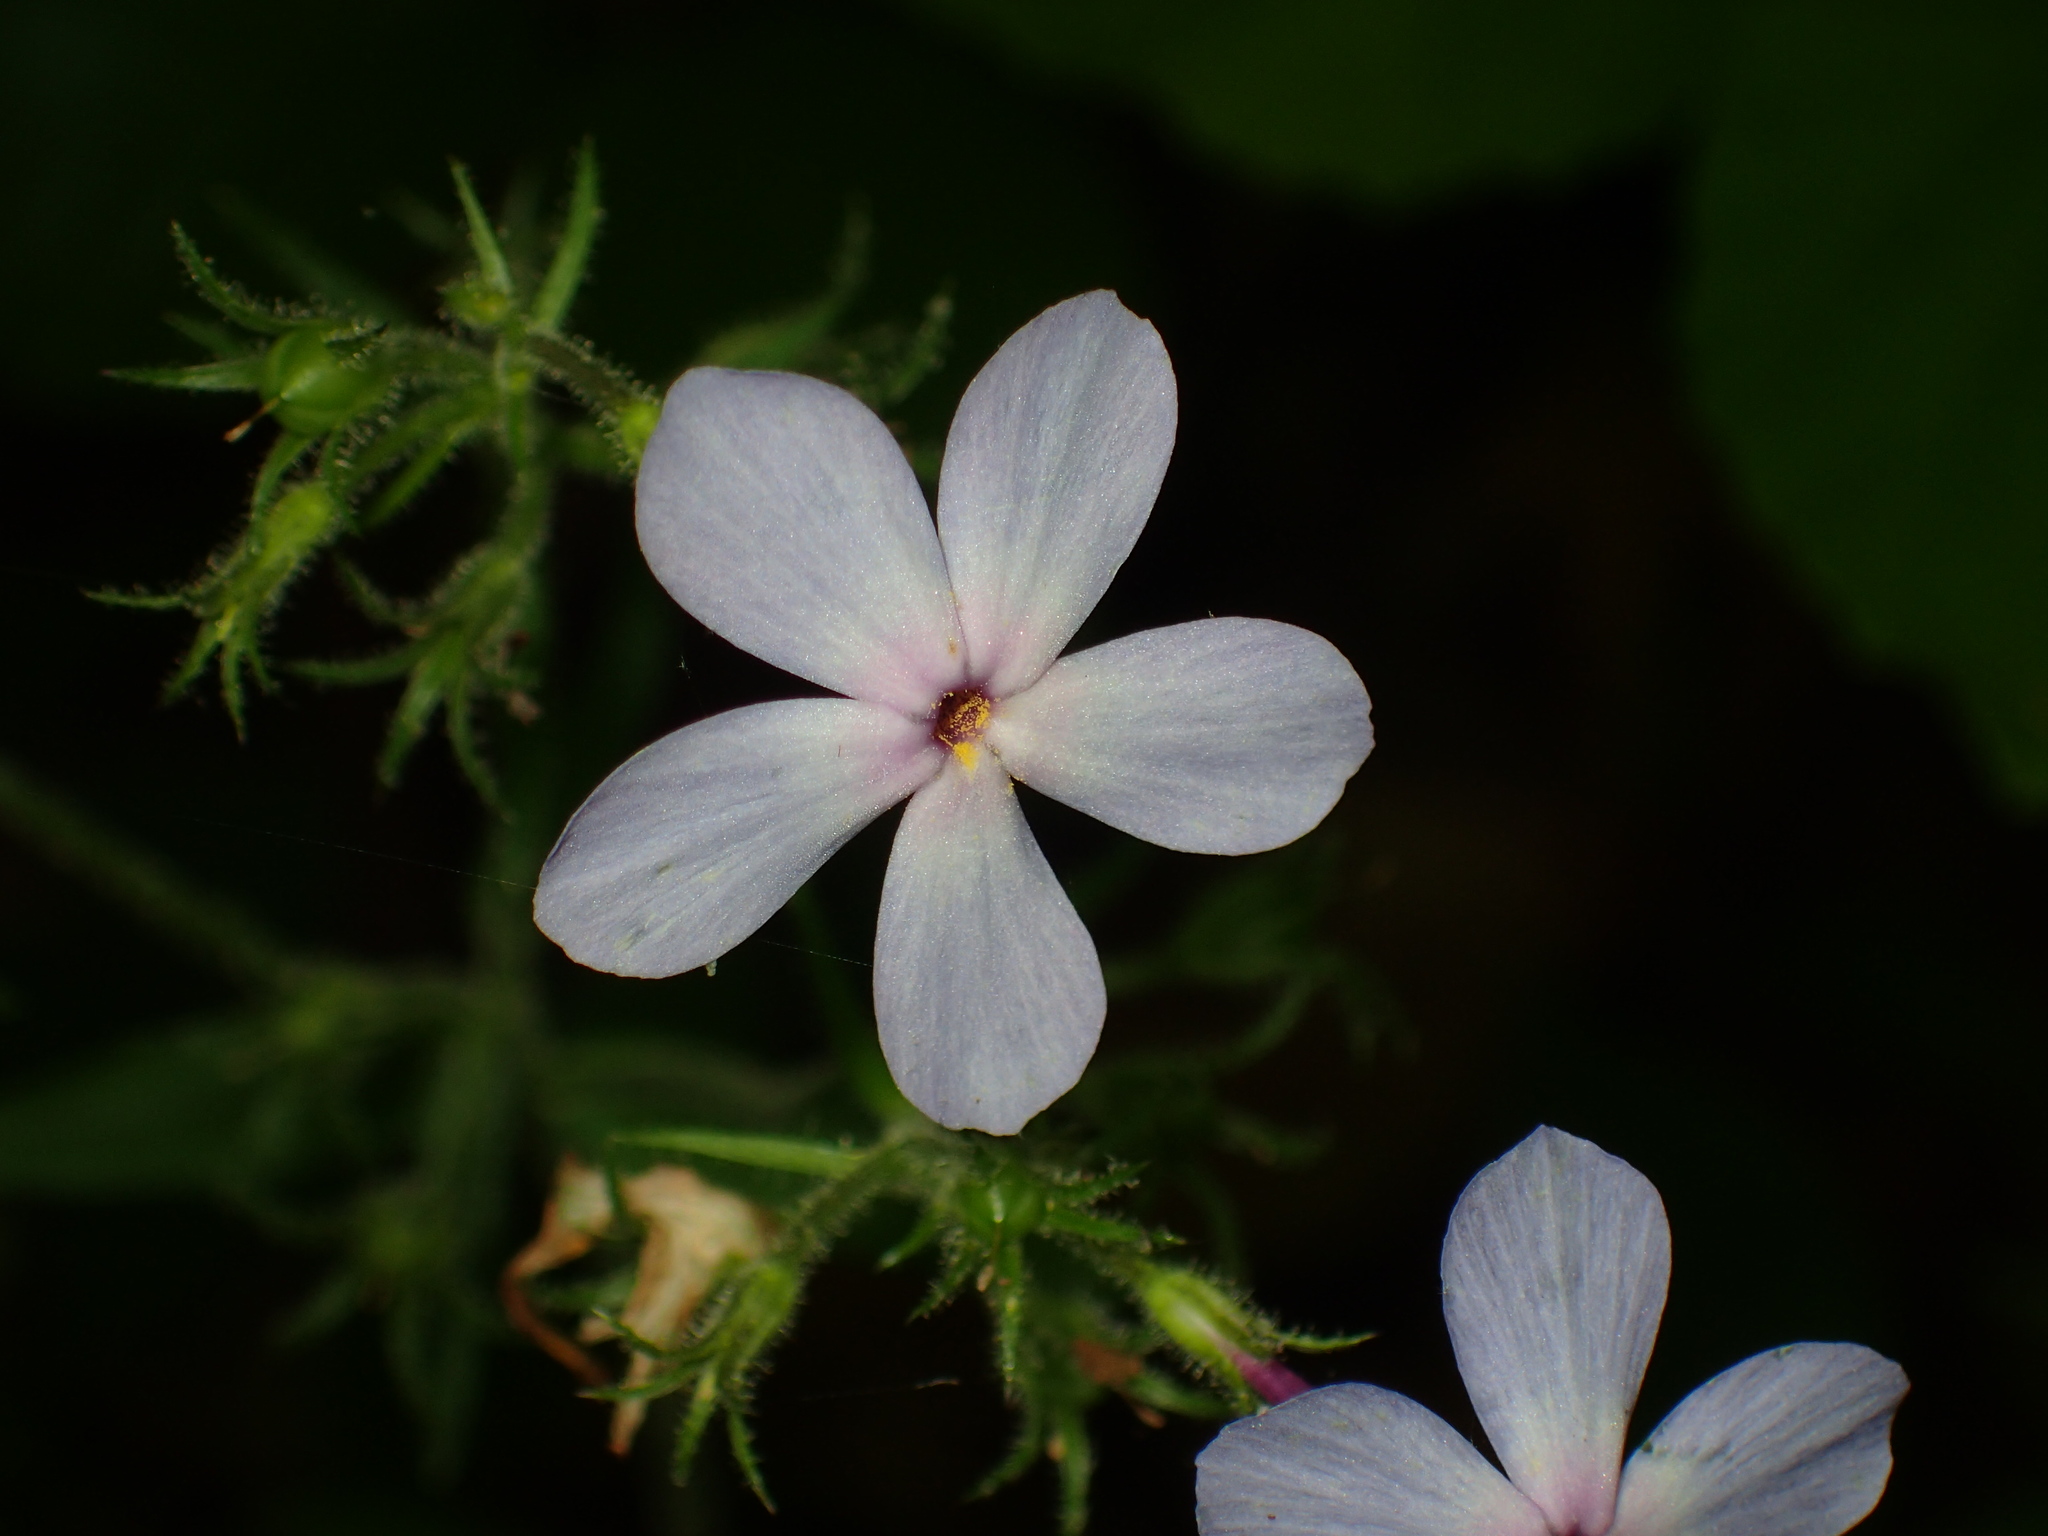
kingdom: Plantae
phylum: Tracheophyta
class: Magnoliopsida
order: Ericales
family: Polemoniaceae
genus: Phlox
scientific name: Phlox divaricata
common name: Blue phlox
